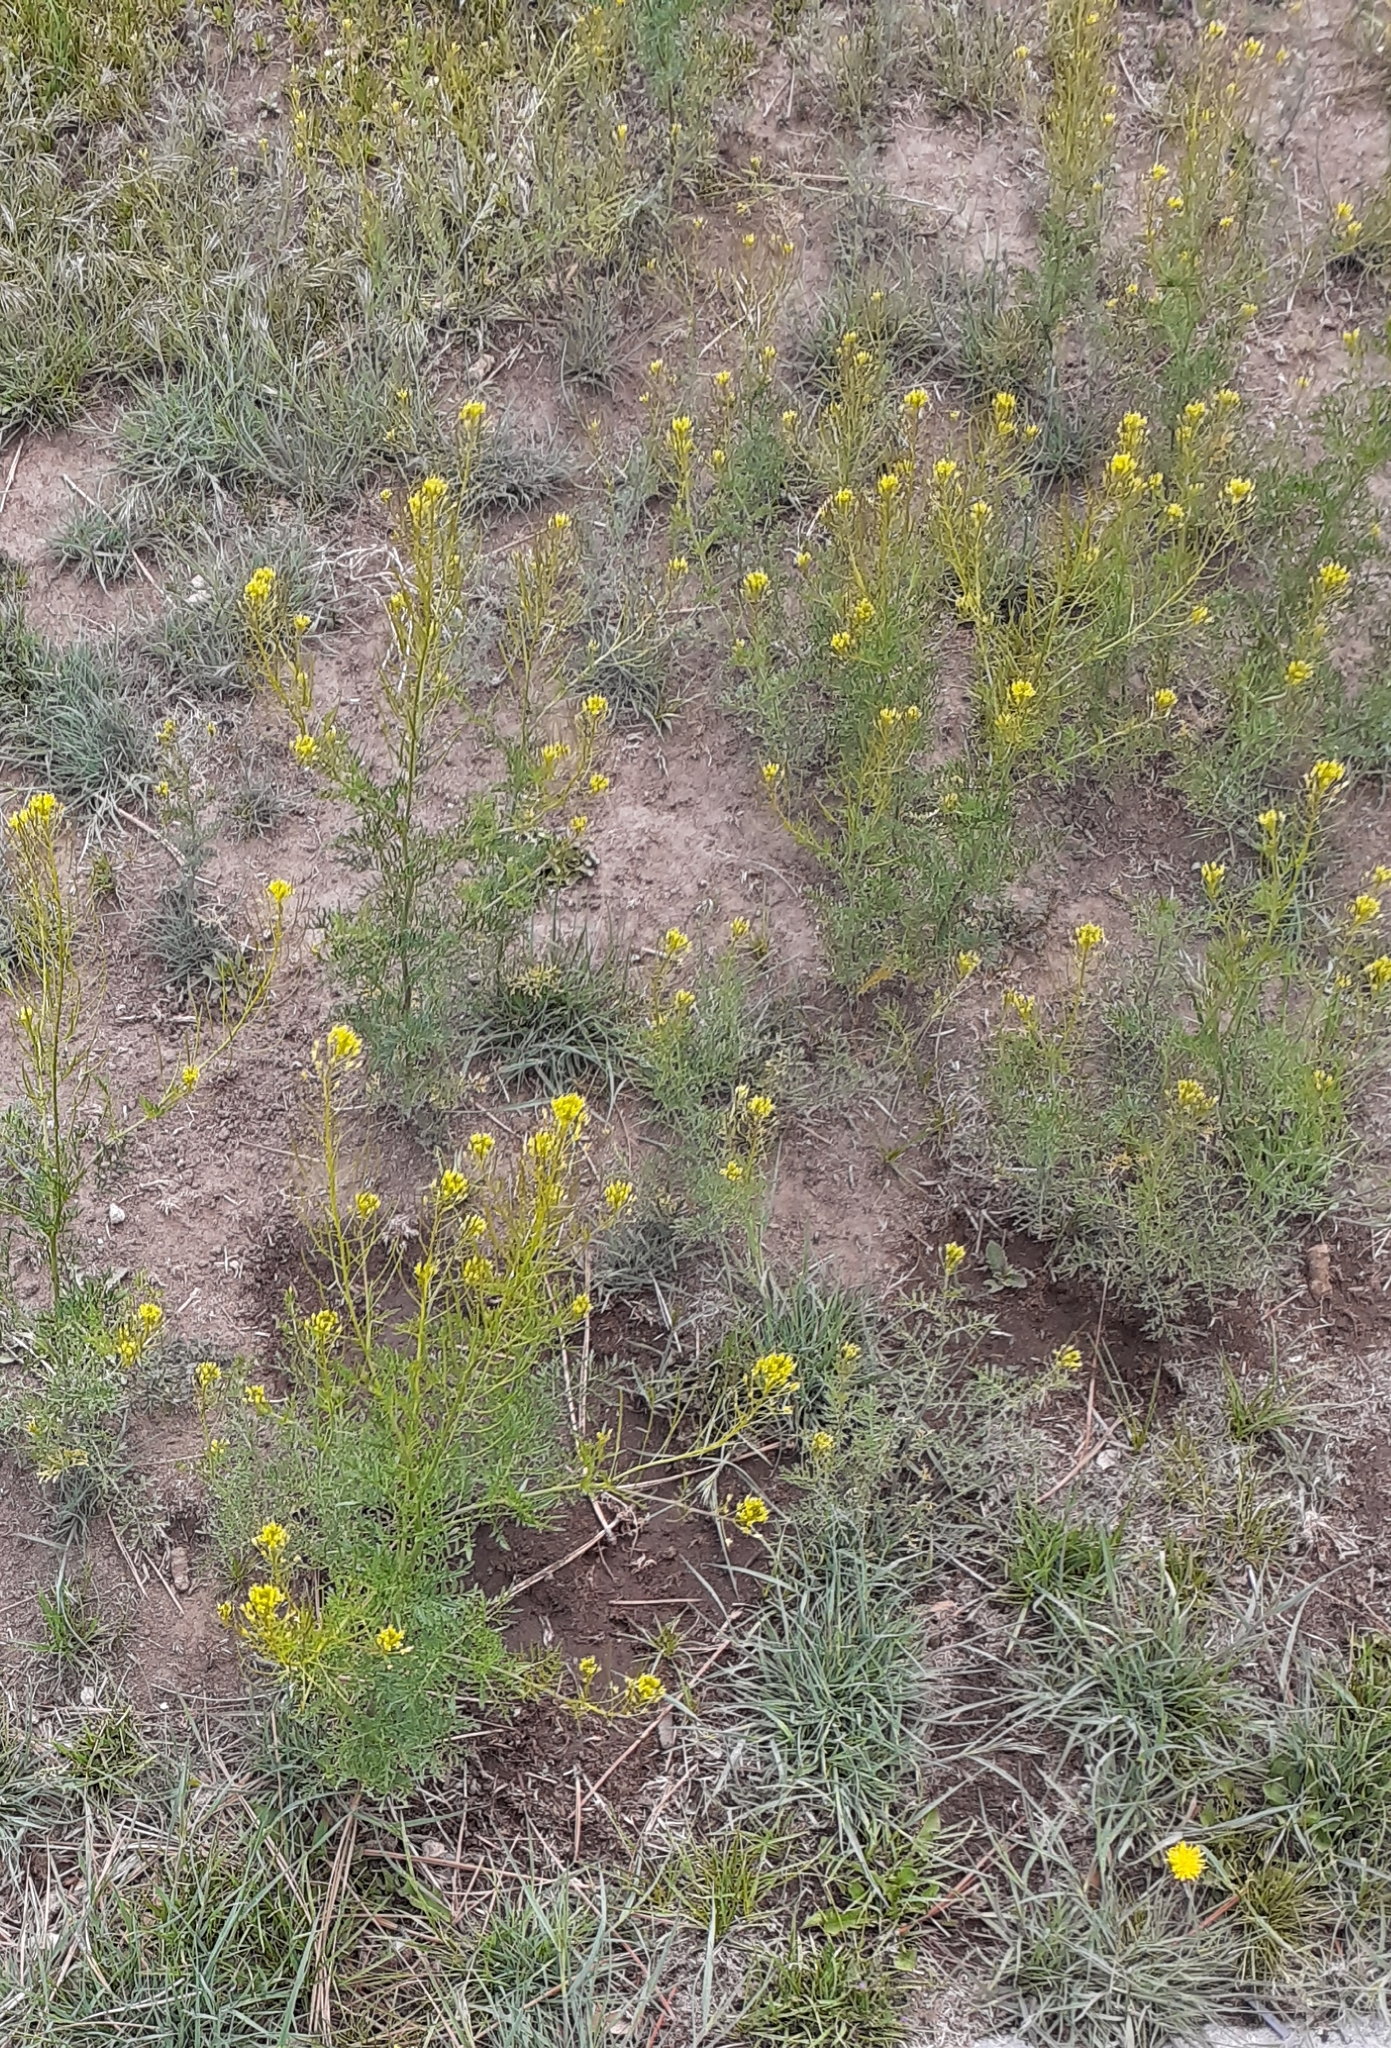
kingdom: Plantae
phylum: Tracheophyta
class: Magnoliopsida
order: Brassicales
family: Brassicaceae
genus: Descurainia
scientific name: Descurainia sophia
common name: Flixweed
